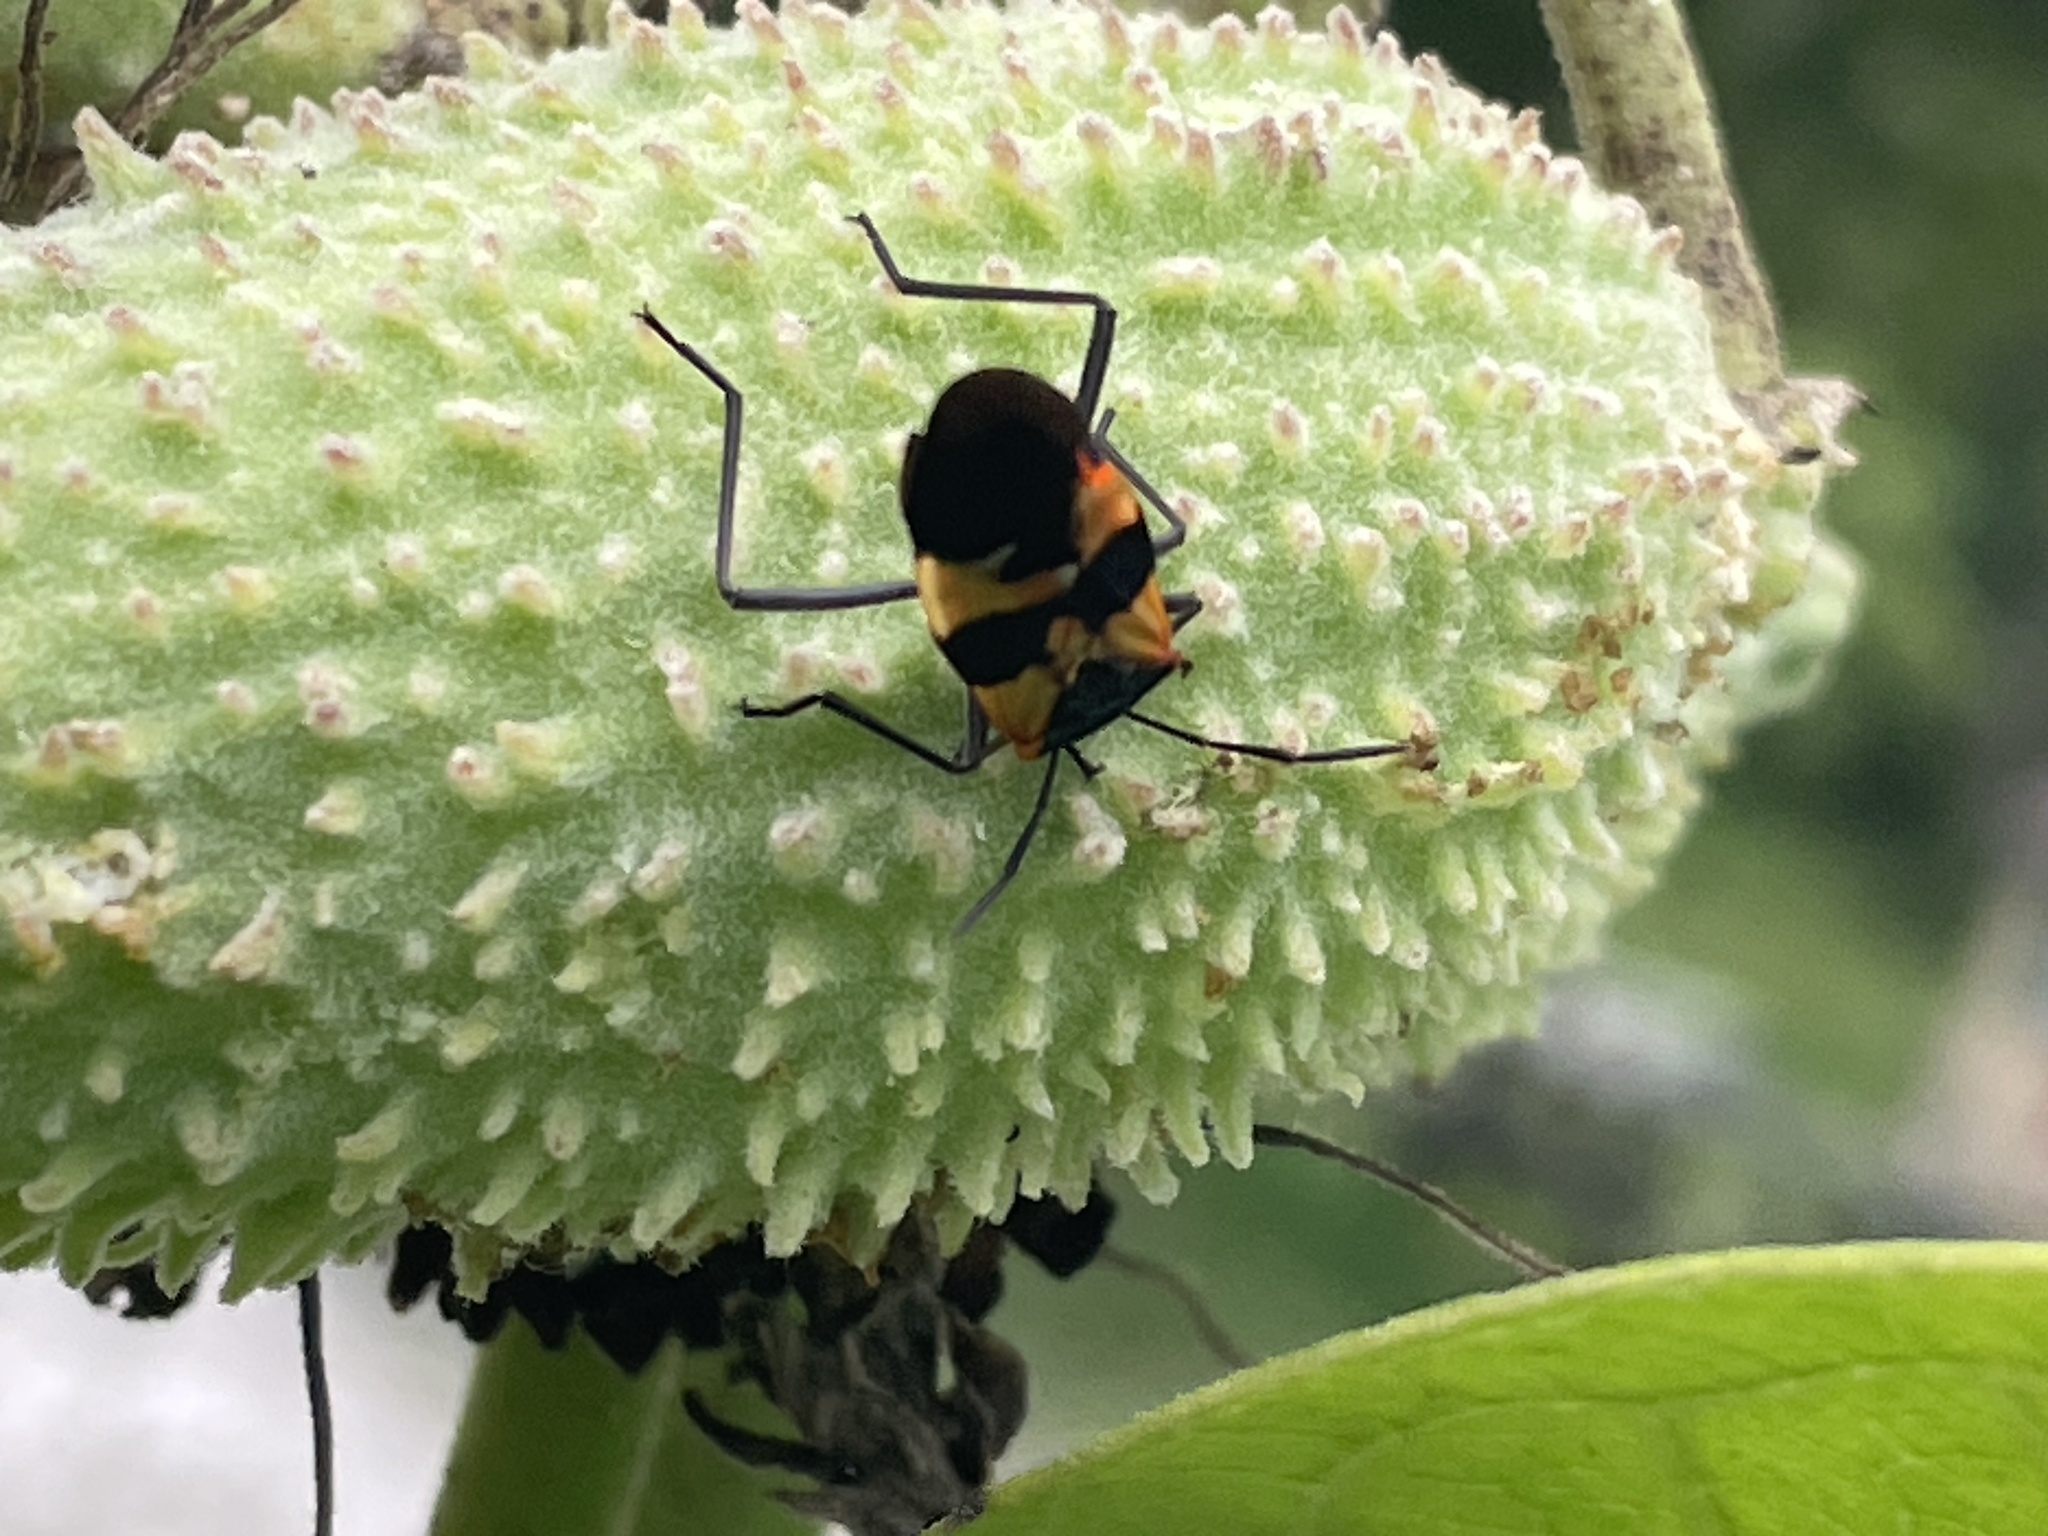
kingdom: Animalia
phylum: Arthropoda
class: Insecta
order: Hemiptera
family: Lygaeidae
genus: Oncopeltus
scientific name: Oncopeltus fasciatus
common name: Large milkweed bug
